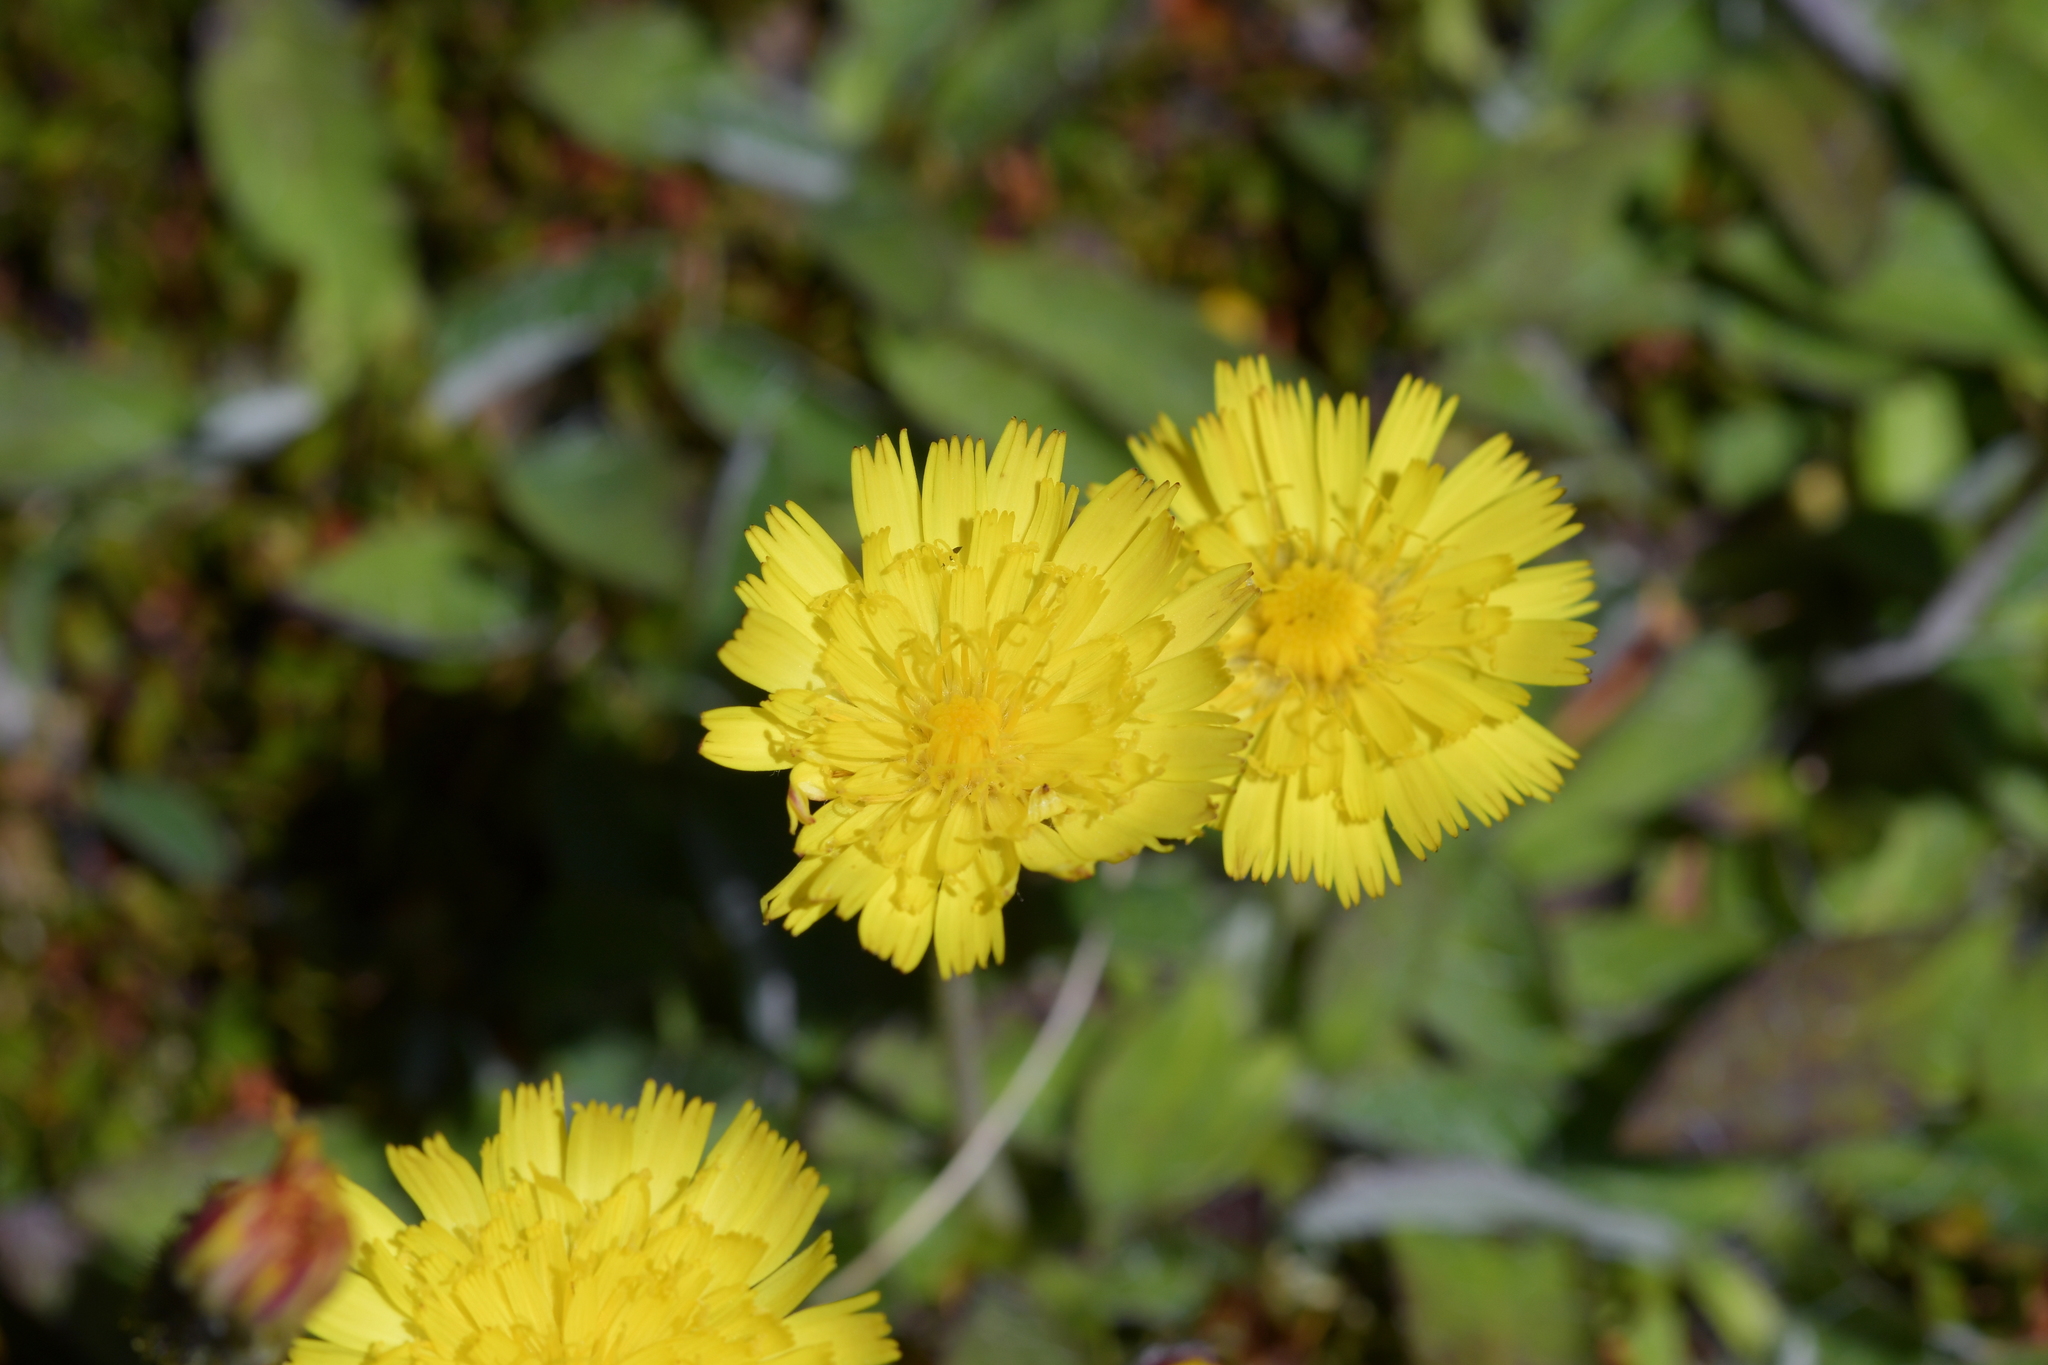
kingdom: Plantae
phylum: Tracheophyta
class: Magnoliopsida
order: Asterales
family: Asteraceae
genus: Pilosella
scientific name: Pilosella officinarum
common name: Mouse-ear hawkweed
